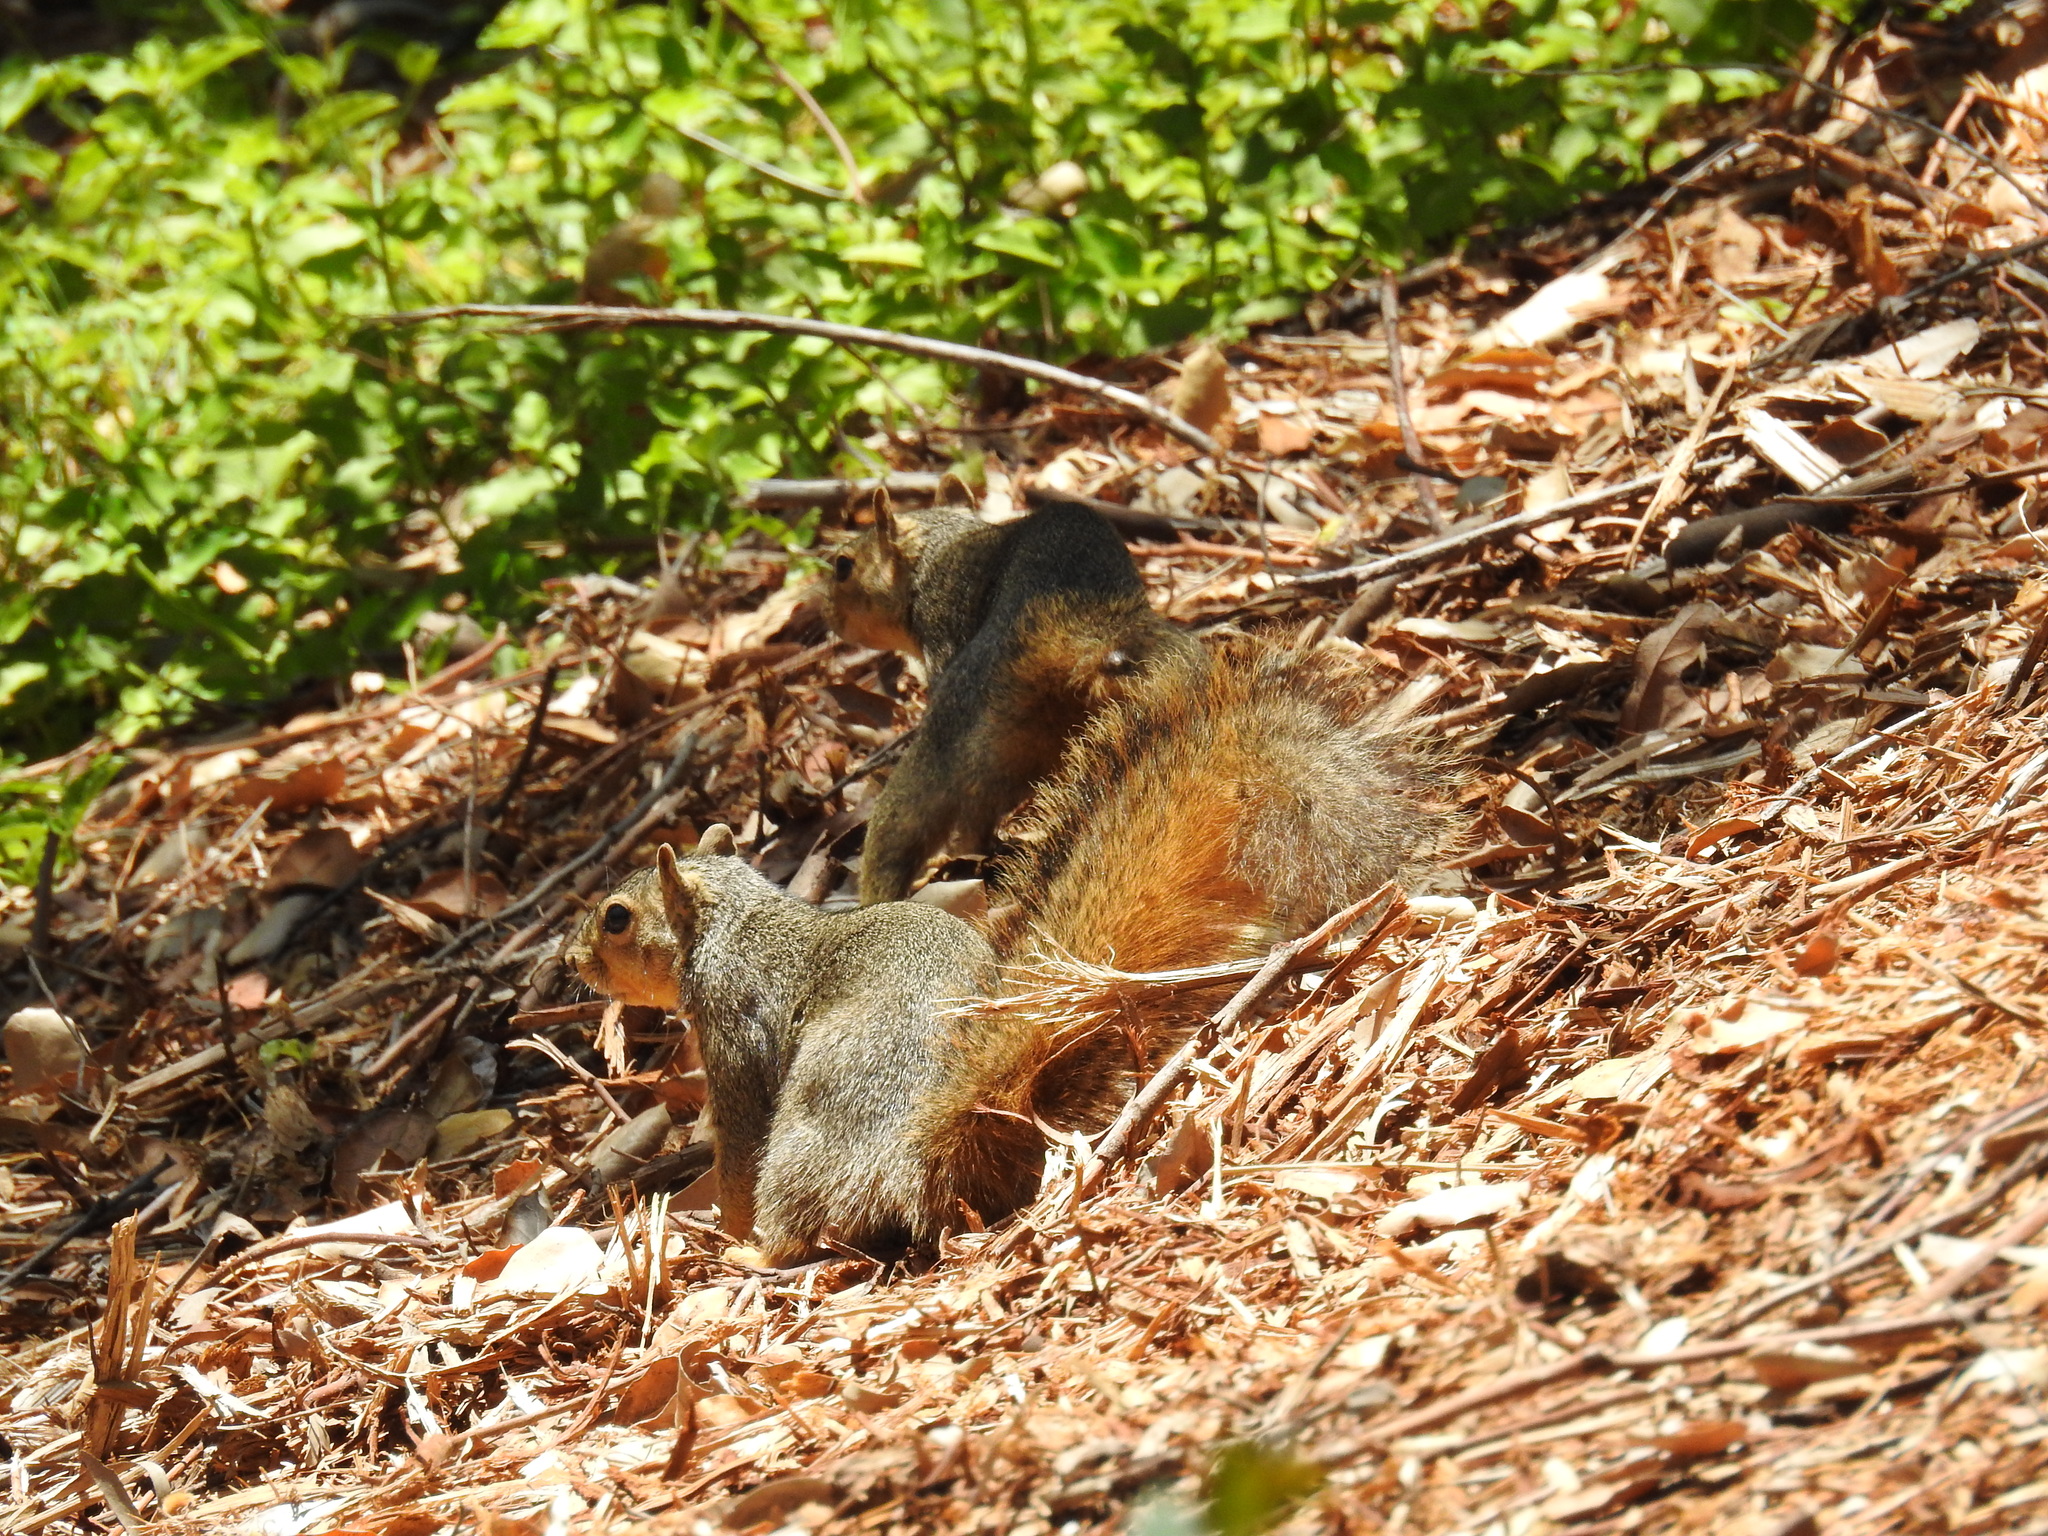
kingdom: Animalia
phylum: Chordata
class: Mammalia
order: Rodentia
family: Sciuridae
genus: Sciurus
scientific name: Sciurus niger
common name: Fox squirrel
